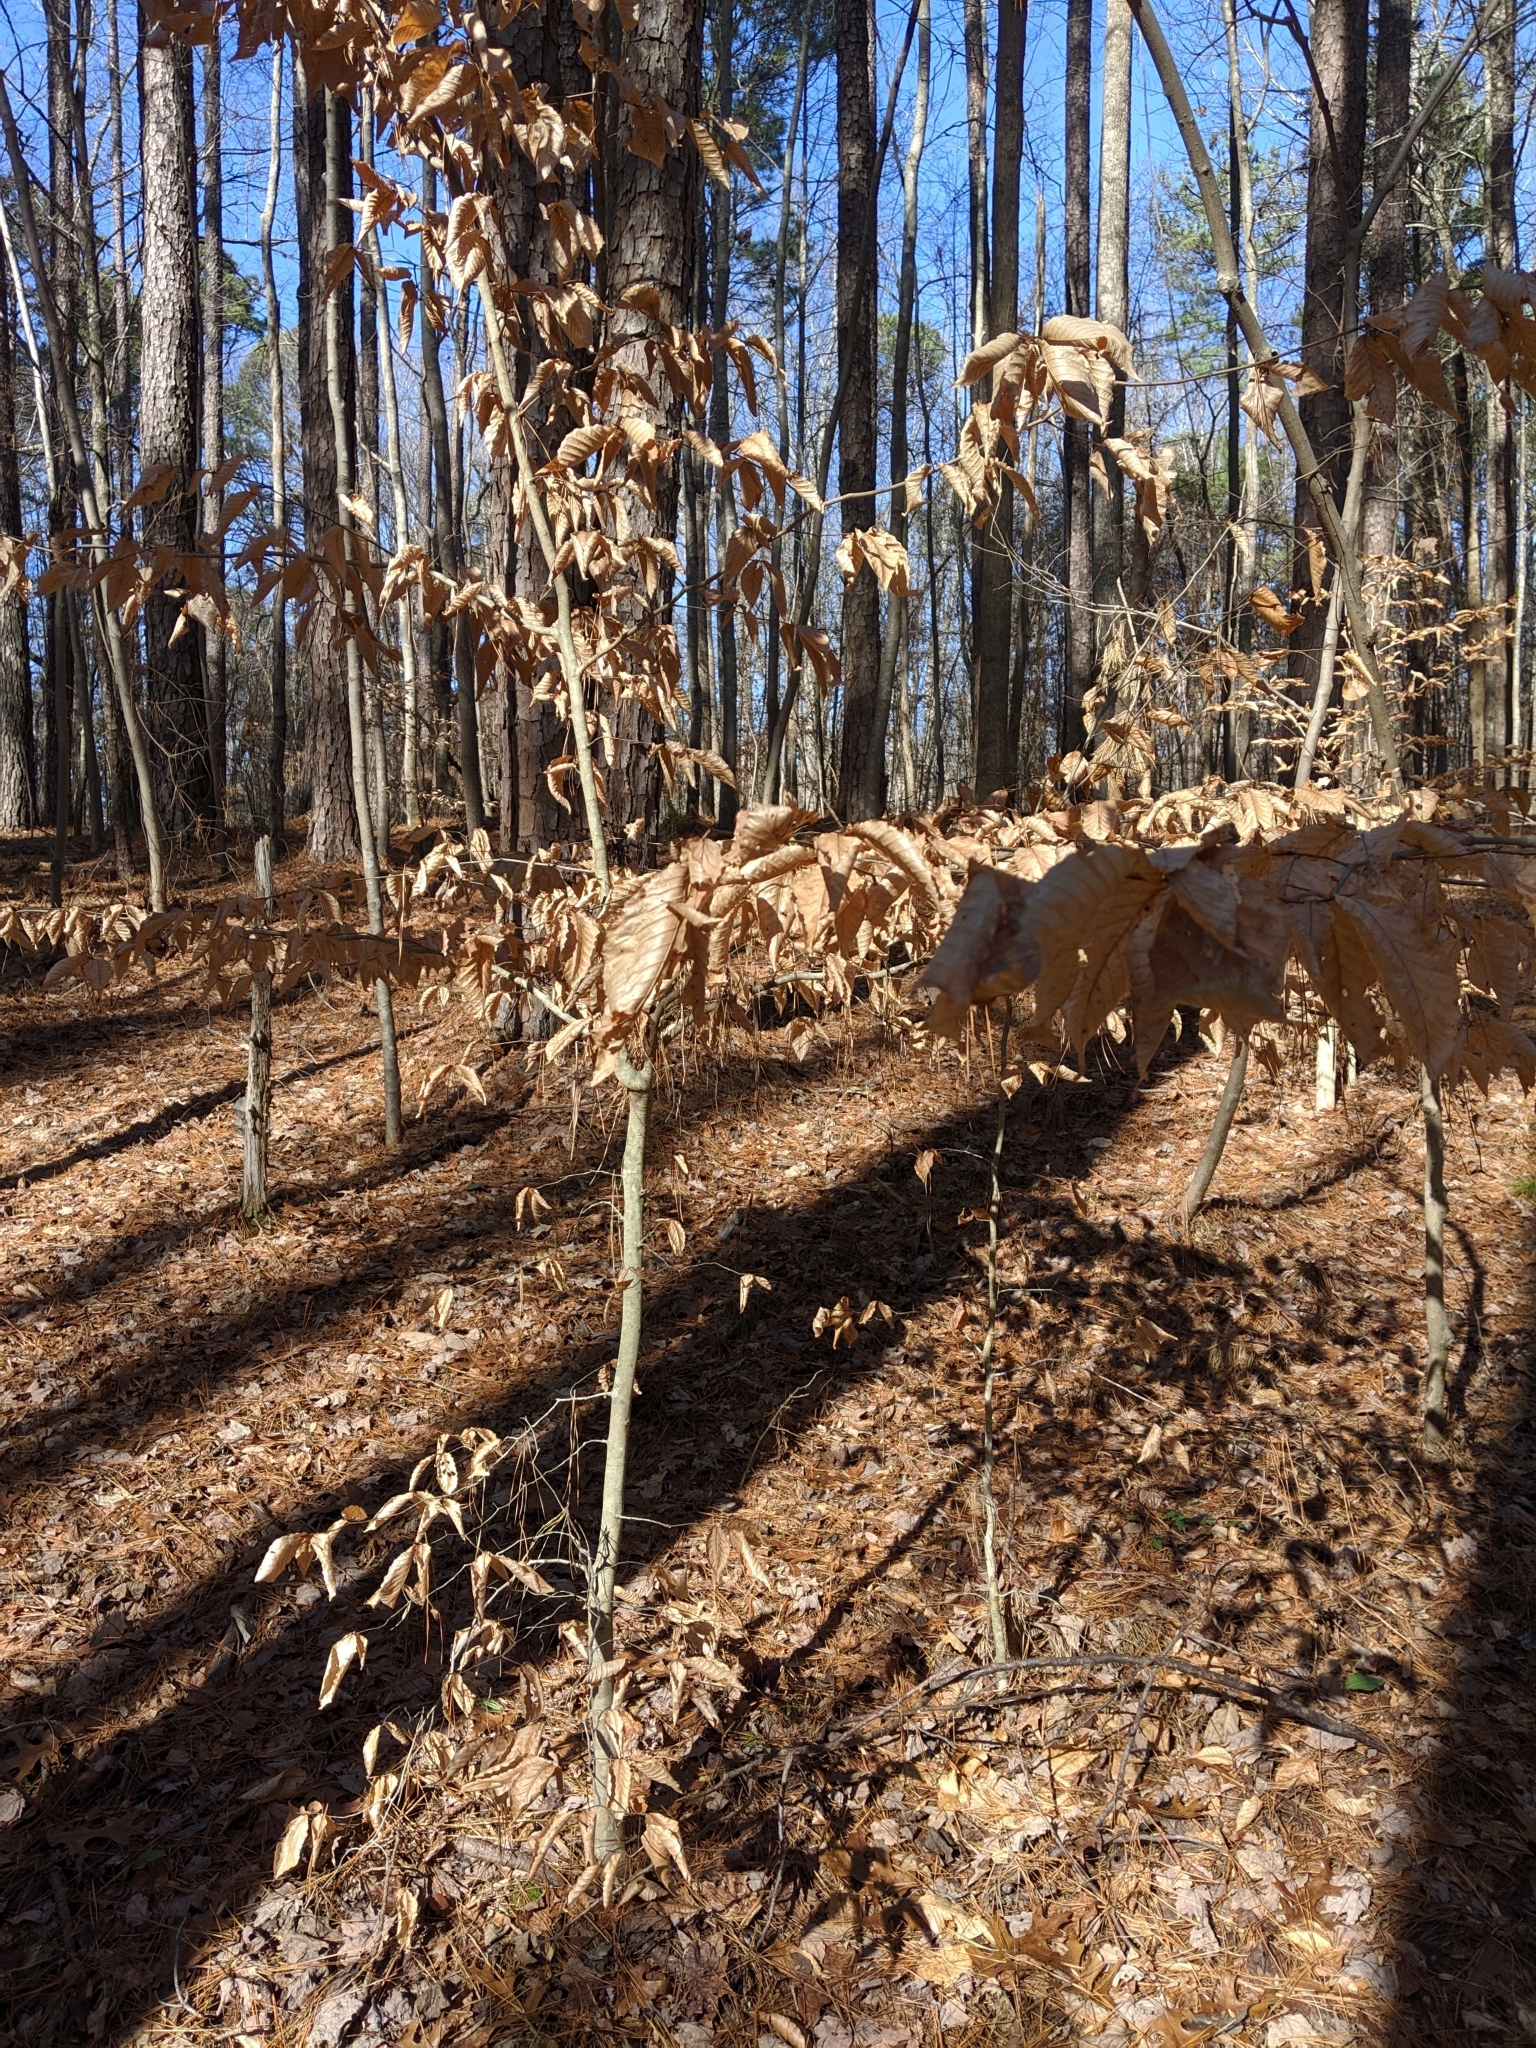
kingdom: Plantae
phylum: Tracheophyta
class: Magnoliopsida
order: Fagales
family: Fagaceae
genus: Fagus
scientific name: Fagus grandifolia
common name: American beech
